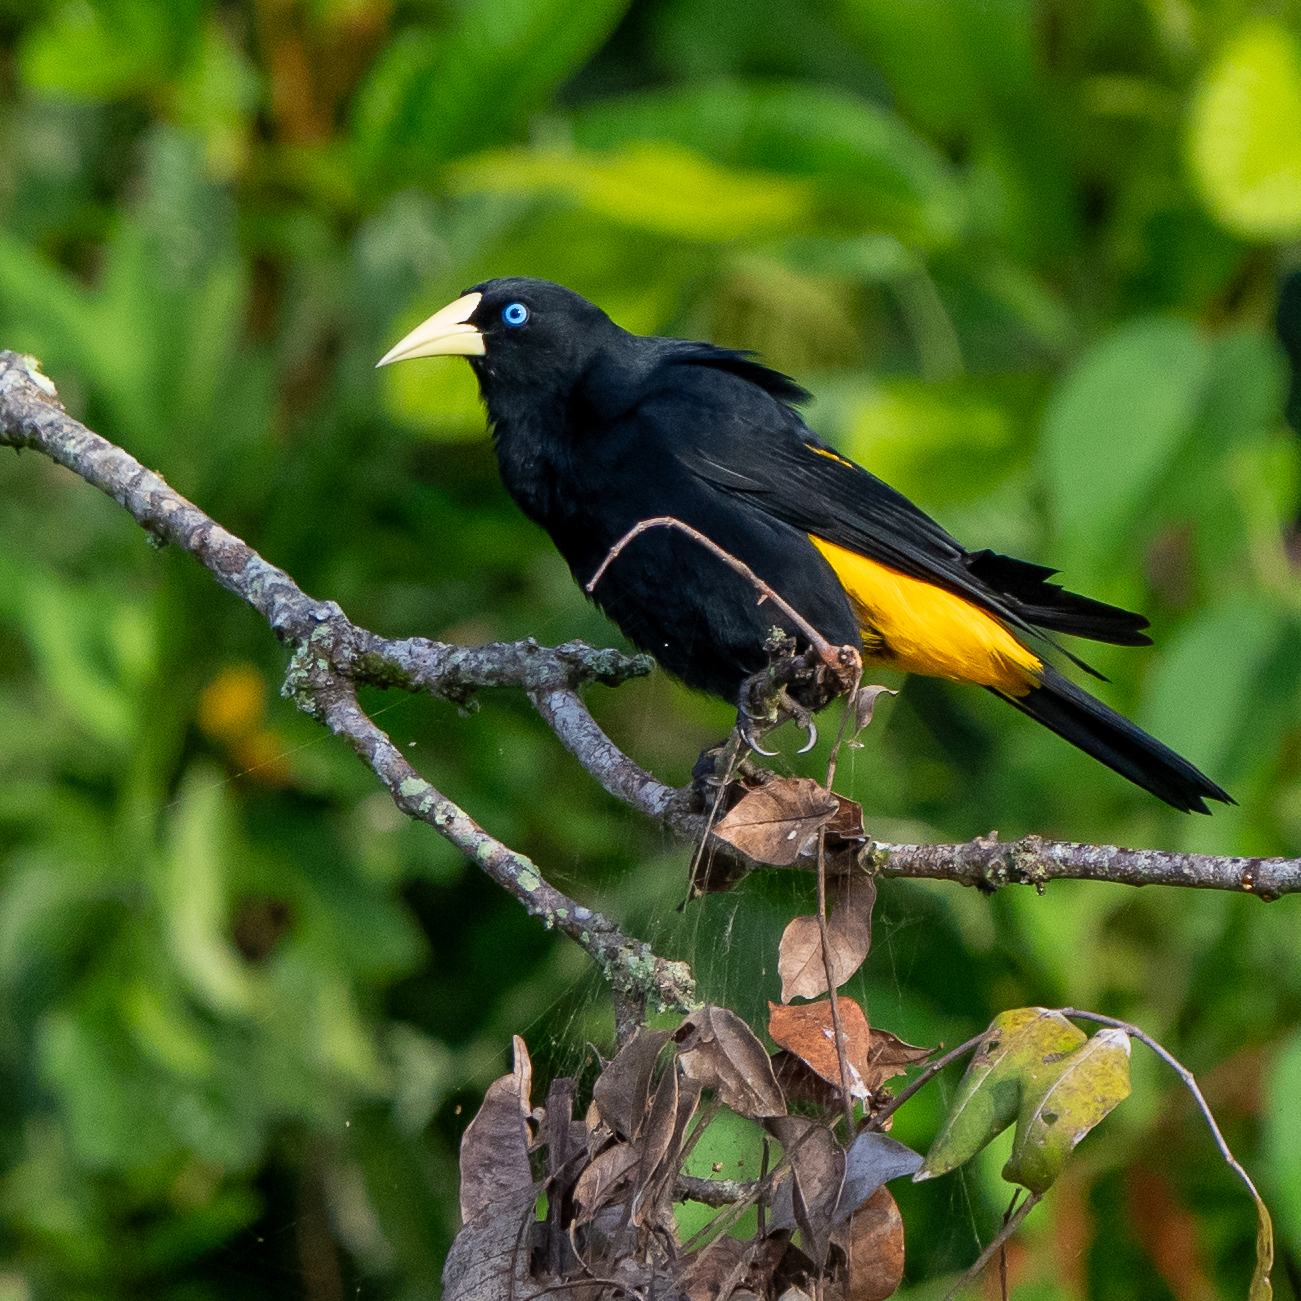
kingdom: Animalia
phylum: Chordata
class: Aves
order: Passeriformes
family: Icteridae
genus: Cacicus
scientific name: Cacicus cela
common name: Yellow-rumped cacique
